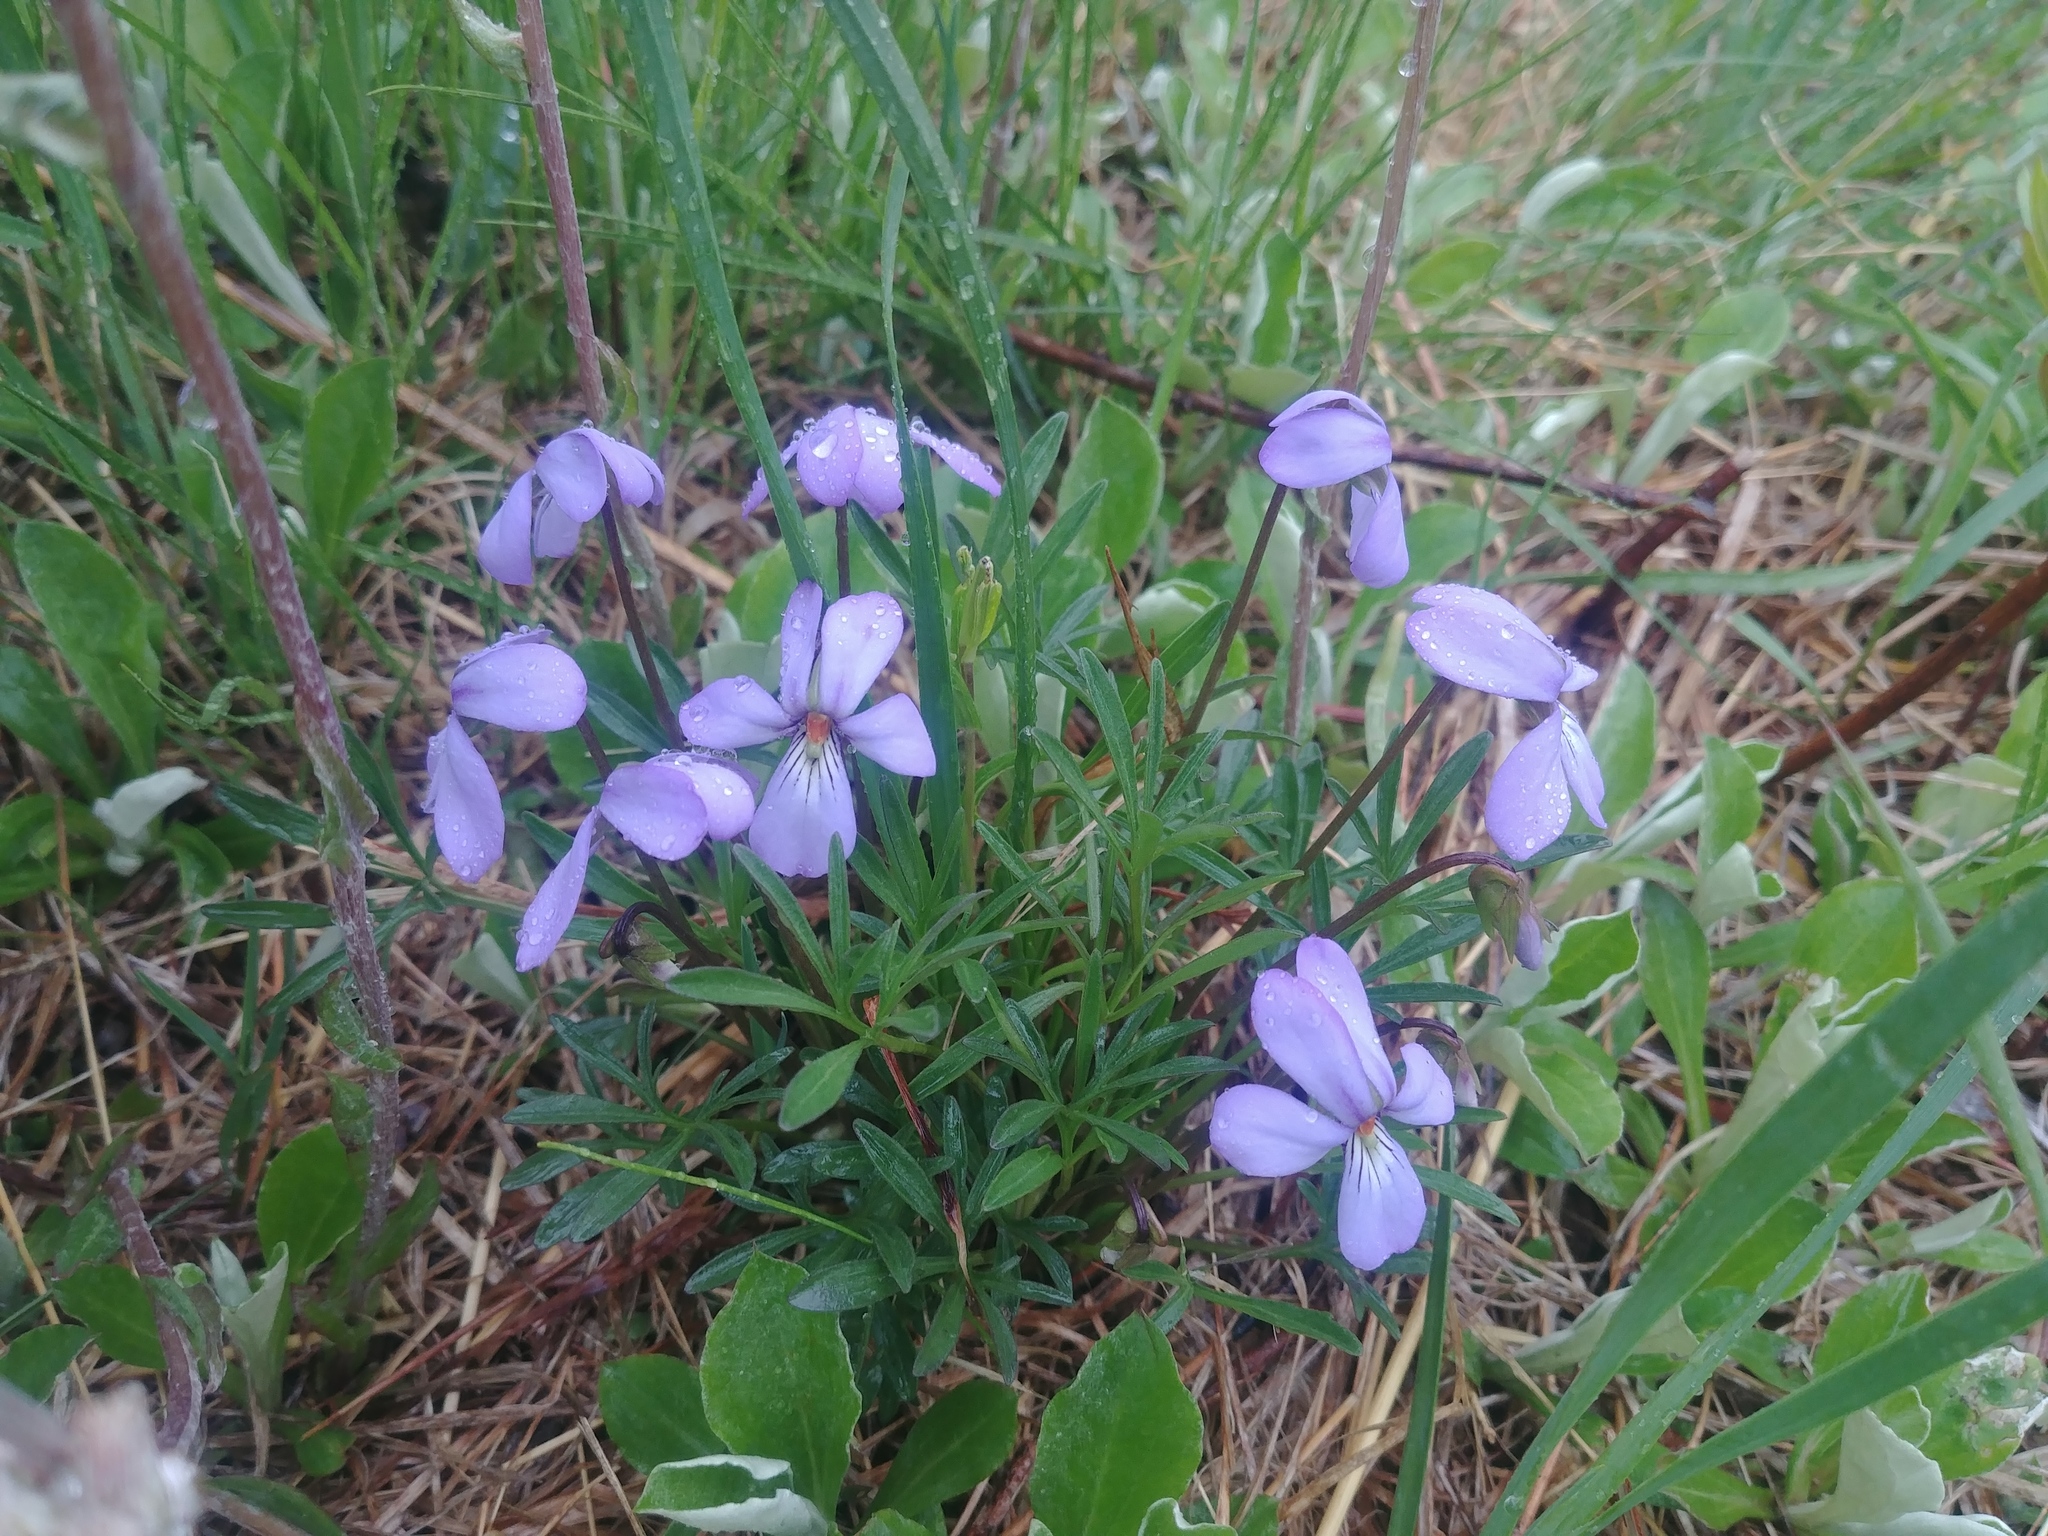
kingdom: Plantae
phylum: Tracheophyta
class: Magnoliopsida
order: Malpighiales
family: Violaceae
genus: Viola
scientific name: Viola pedata
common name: Pansy violet
